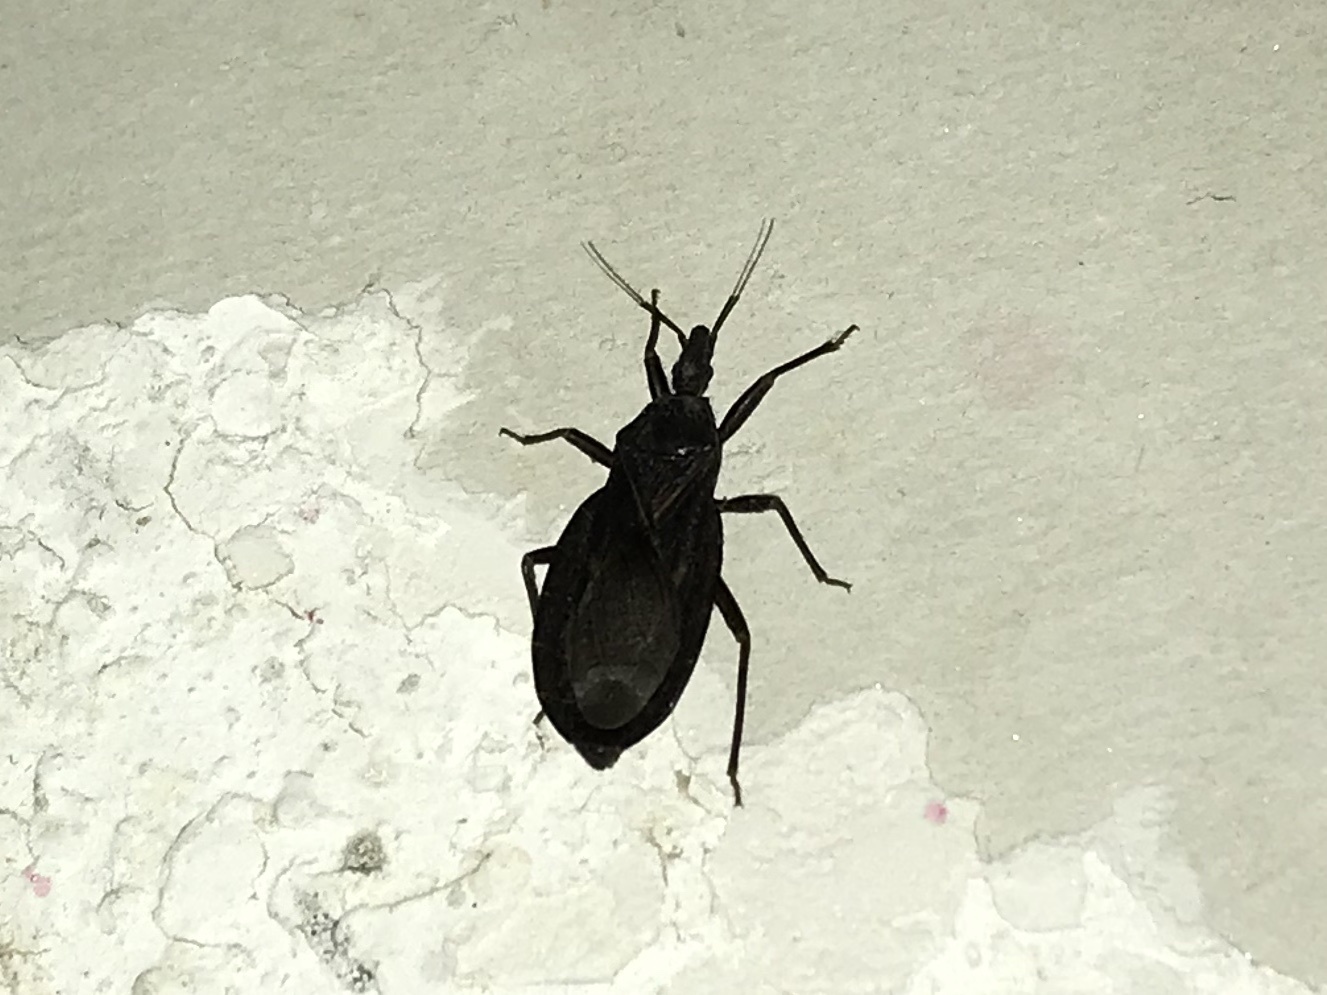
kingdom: Animalia
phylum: Arthropoda
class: Insecta
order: Hemiptera
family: Reduviidae
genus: Triatoma
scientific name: Triatoma protracta
